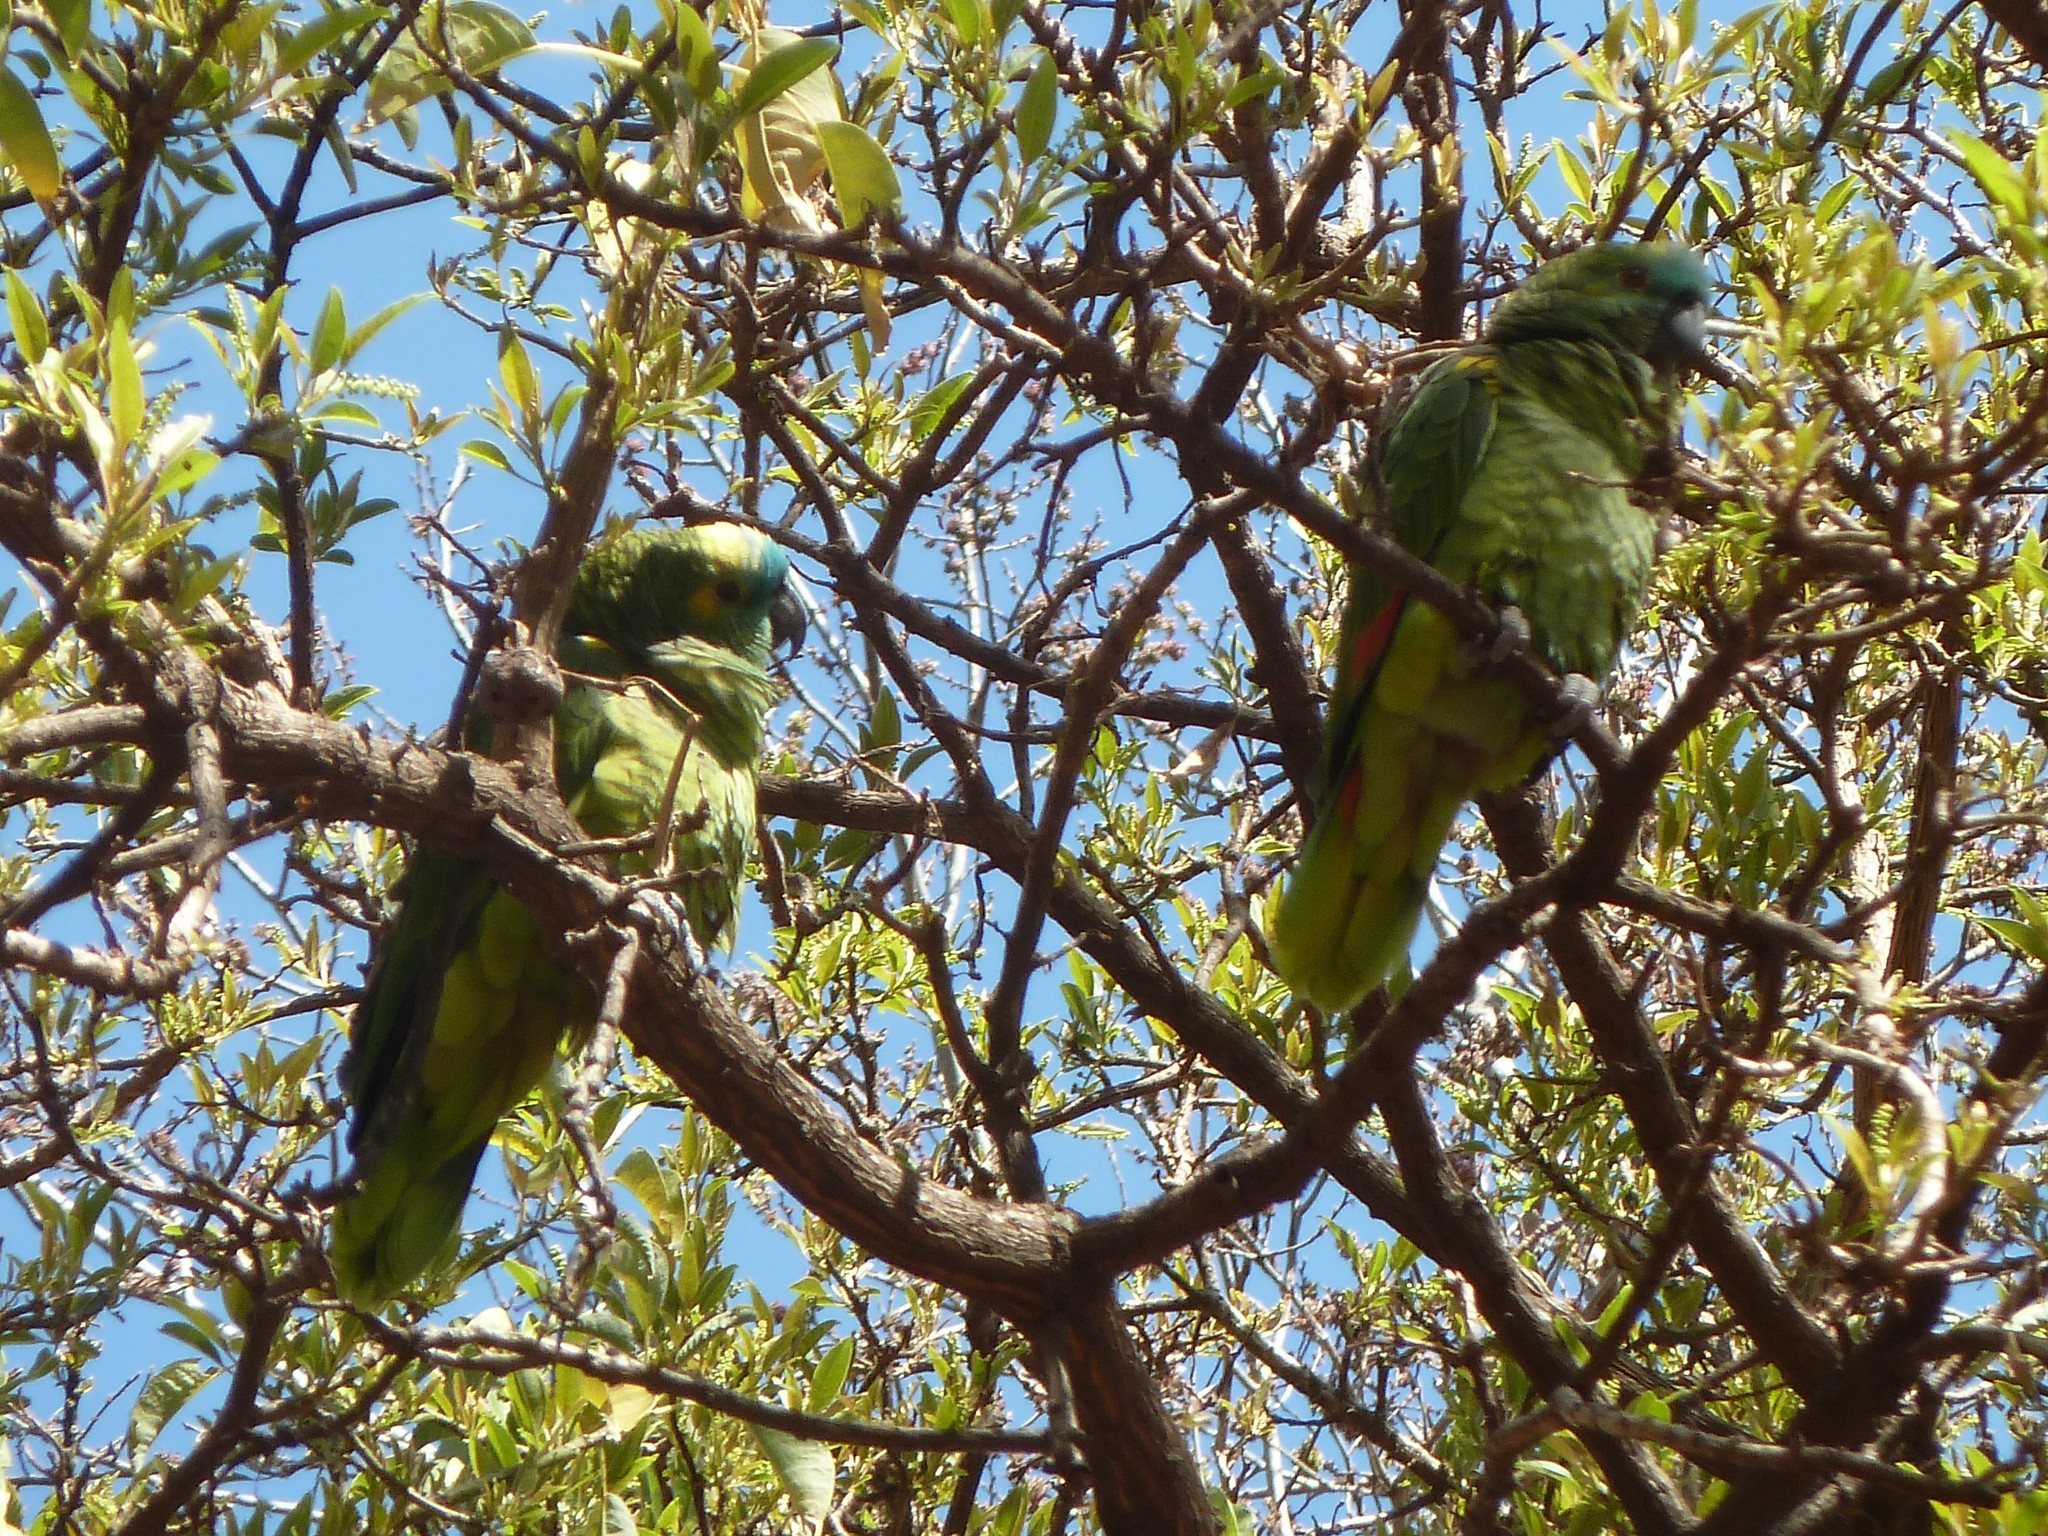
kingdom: Animalia
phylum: Chordata
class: Aves
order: Psittaciformes
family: Psittacidae
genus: Amazona
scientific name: Amazona aestiva
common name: Turquoise-fronted amazon
